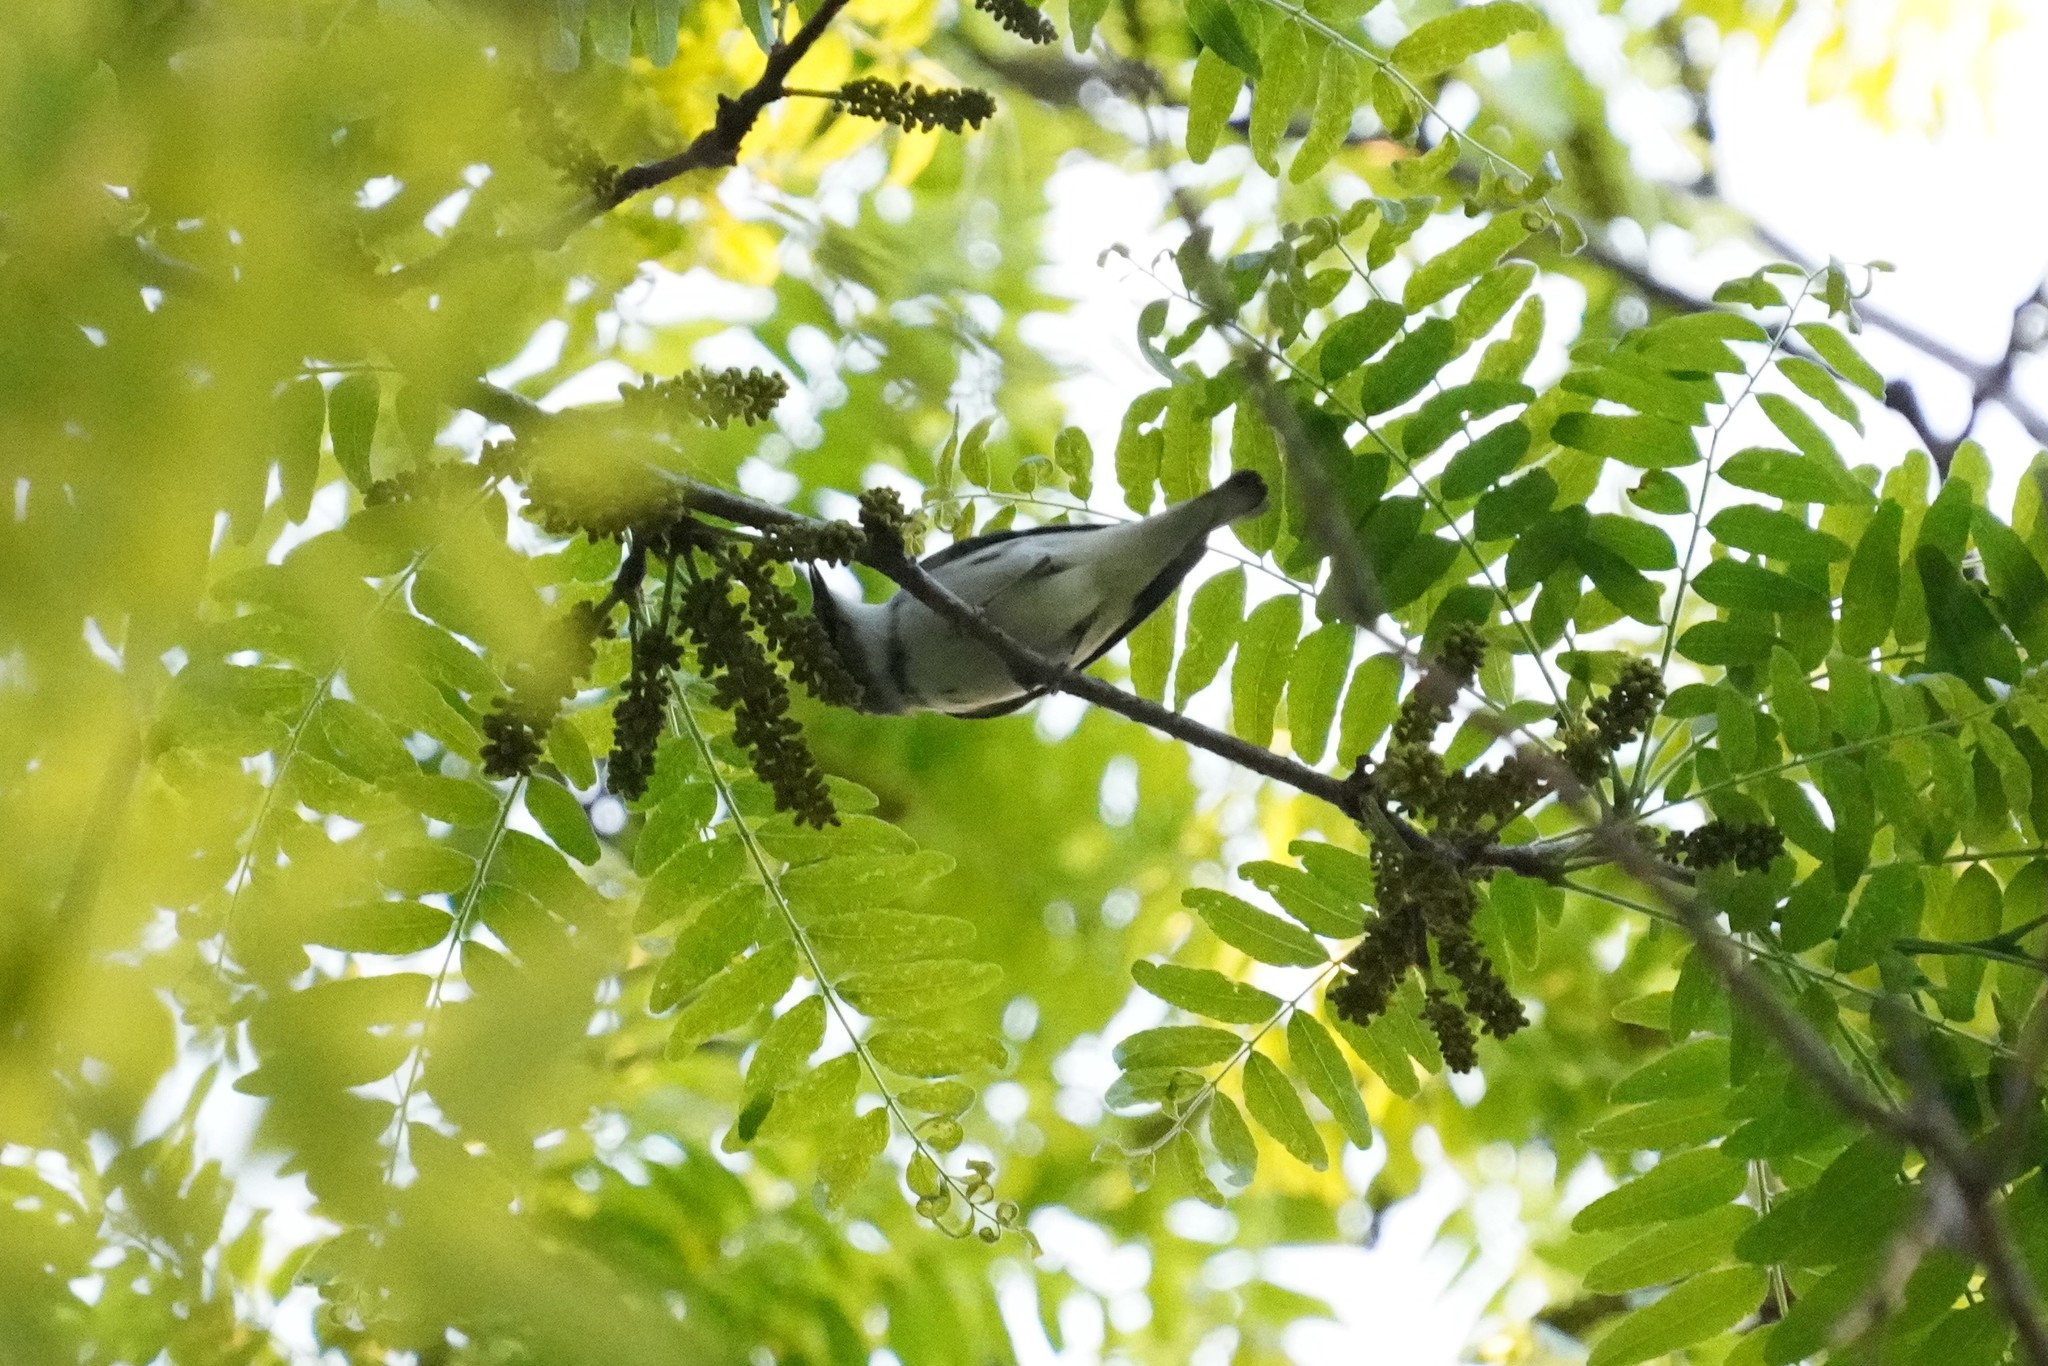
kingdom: Animalia
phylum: Chordata
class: Aves
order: Passeriformes
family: Parulidae
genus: Setophaga
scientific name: Setophaga cerulea
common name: Cerulean warbler
